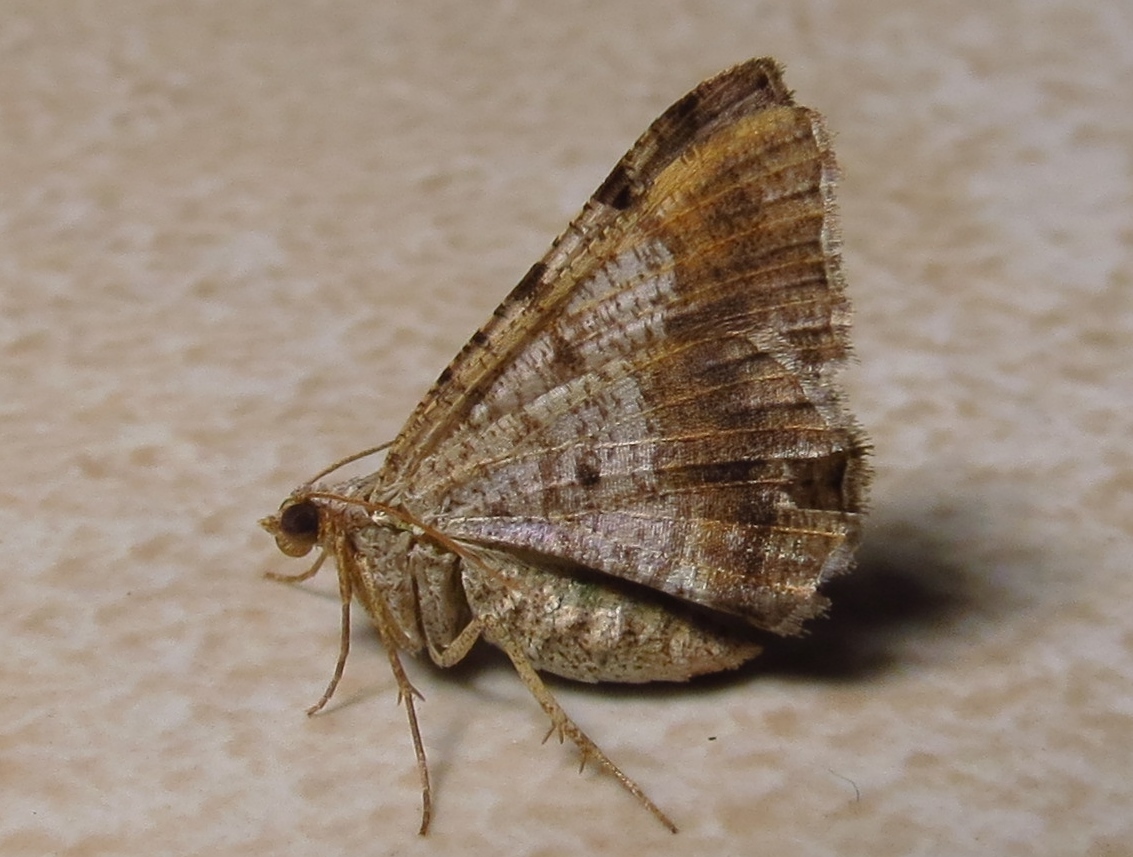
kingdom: Animalia
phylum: Arthropoda
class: Insecta
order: Lepidoptera
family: Geometridae
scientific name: Geometridae
